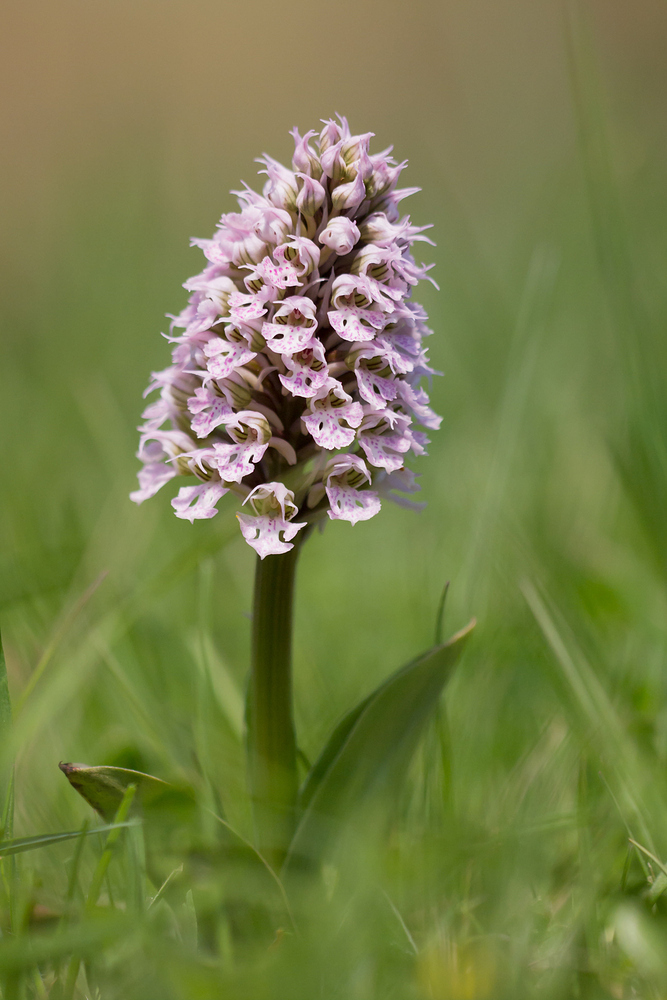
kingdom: Plantae
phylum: Tracheophyta
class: Liliopsida
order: Asparagales
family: Orchidaceae
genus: Neotinea
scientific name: Neotinea conica
